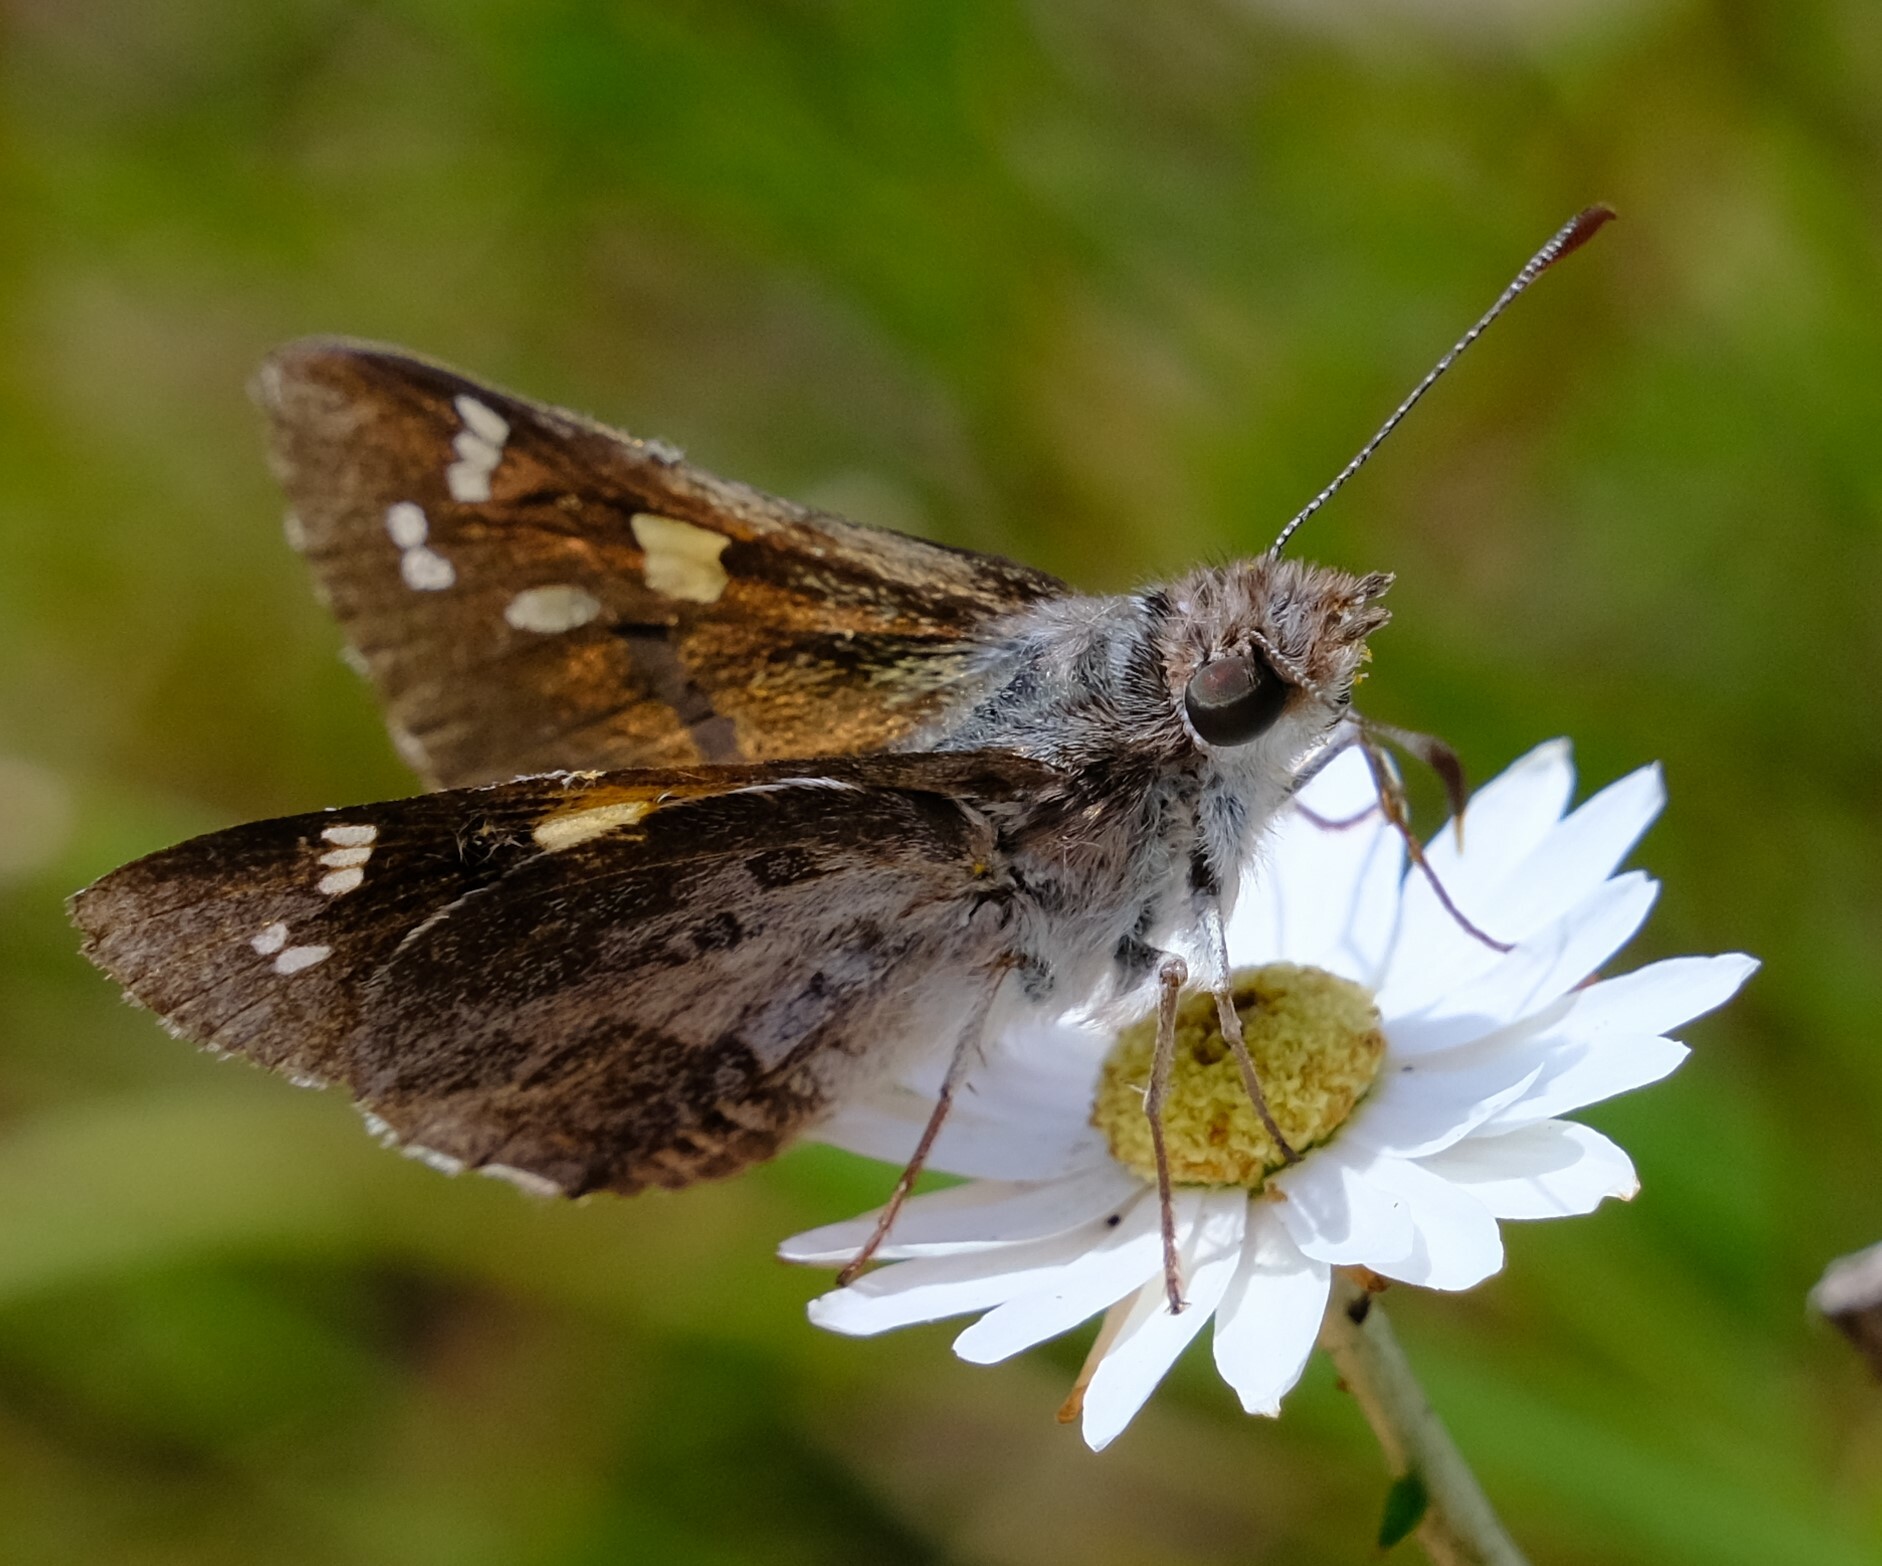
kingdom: Animalia
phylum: Arthropoda
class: Insecta
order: Lepidoptera
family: Hesperiidae
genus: Antipodia
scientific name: Antipodia chaostola
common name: Antipodia skipper
